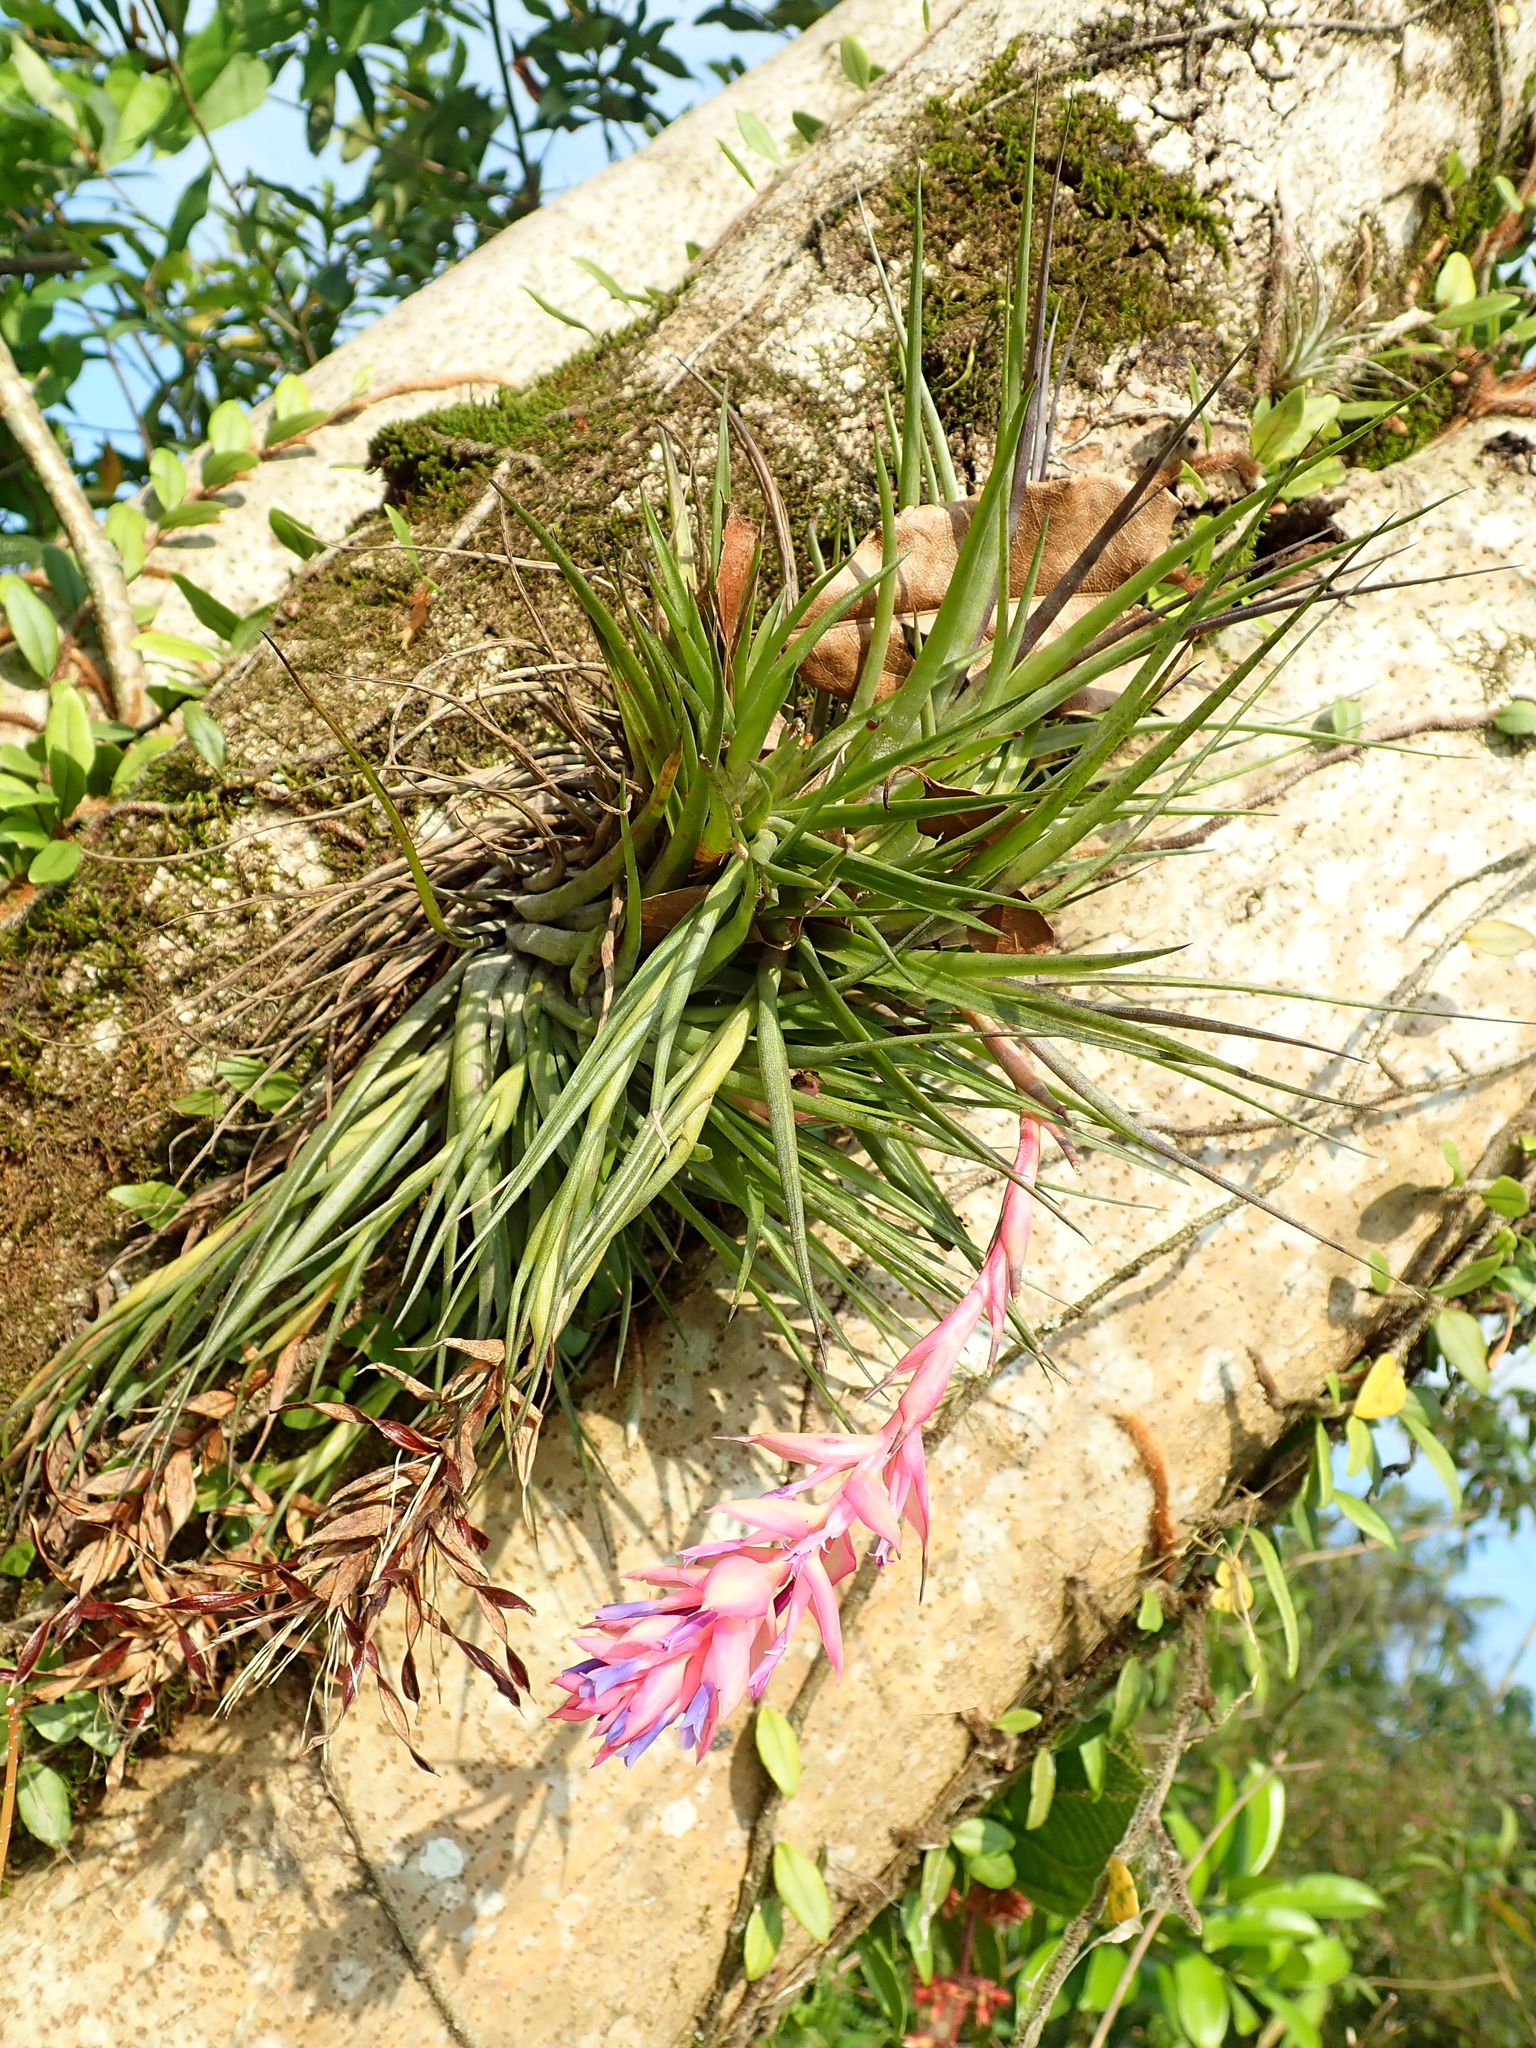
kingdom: Plantae
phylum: Tracheophyta
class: Liliopsida
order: Poales
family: Bromeliaceae
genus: Tillandsia
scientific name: Tillandsia stricta
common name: Airplant
